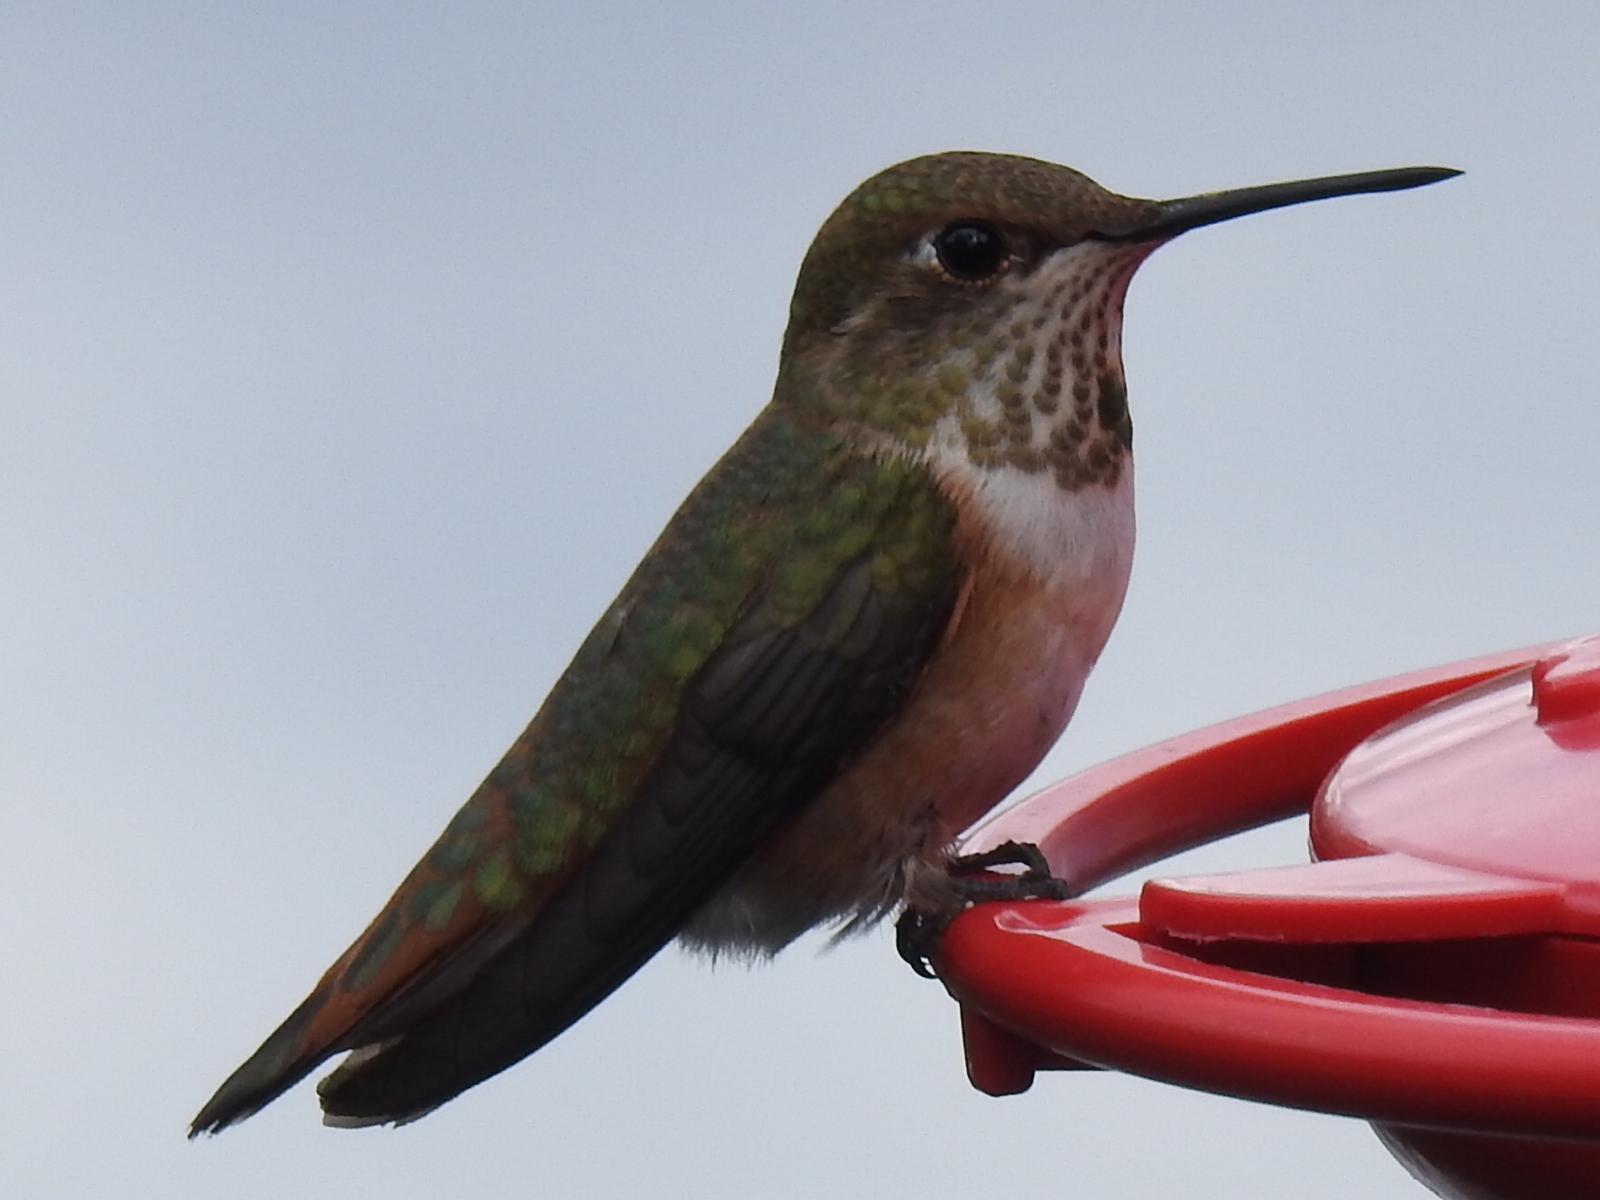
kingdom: Animalia
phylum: Chordata
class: Aves
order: Apodiformes
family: Trochilidae
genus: Selasphorus
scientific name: Selasphorus rufus
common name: Rufous hummingbird
